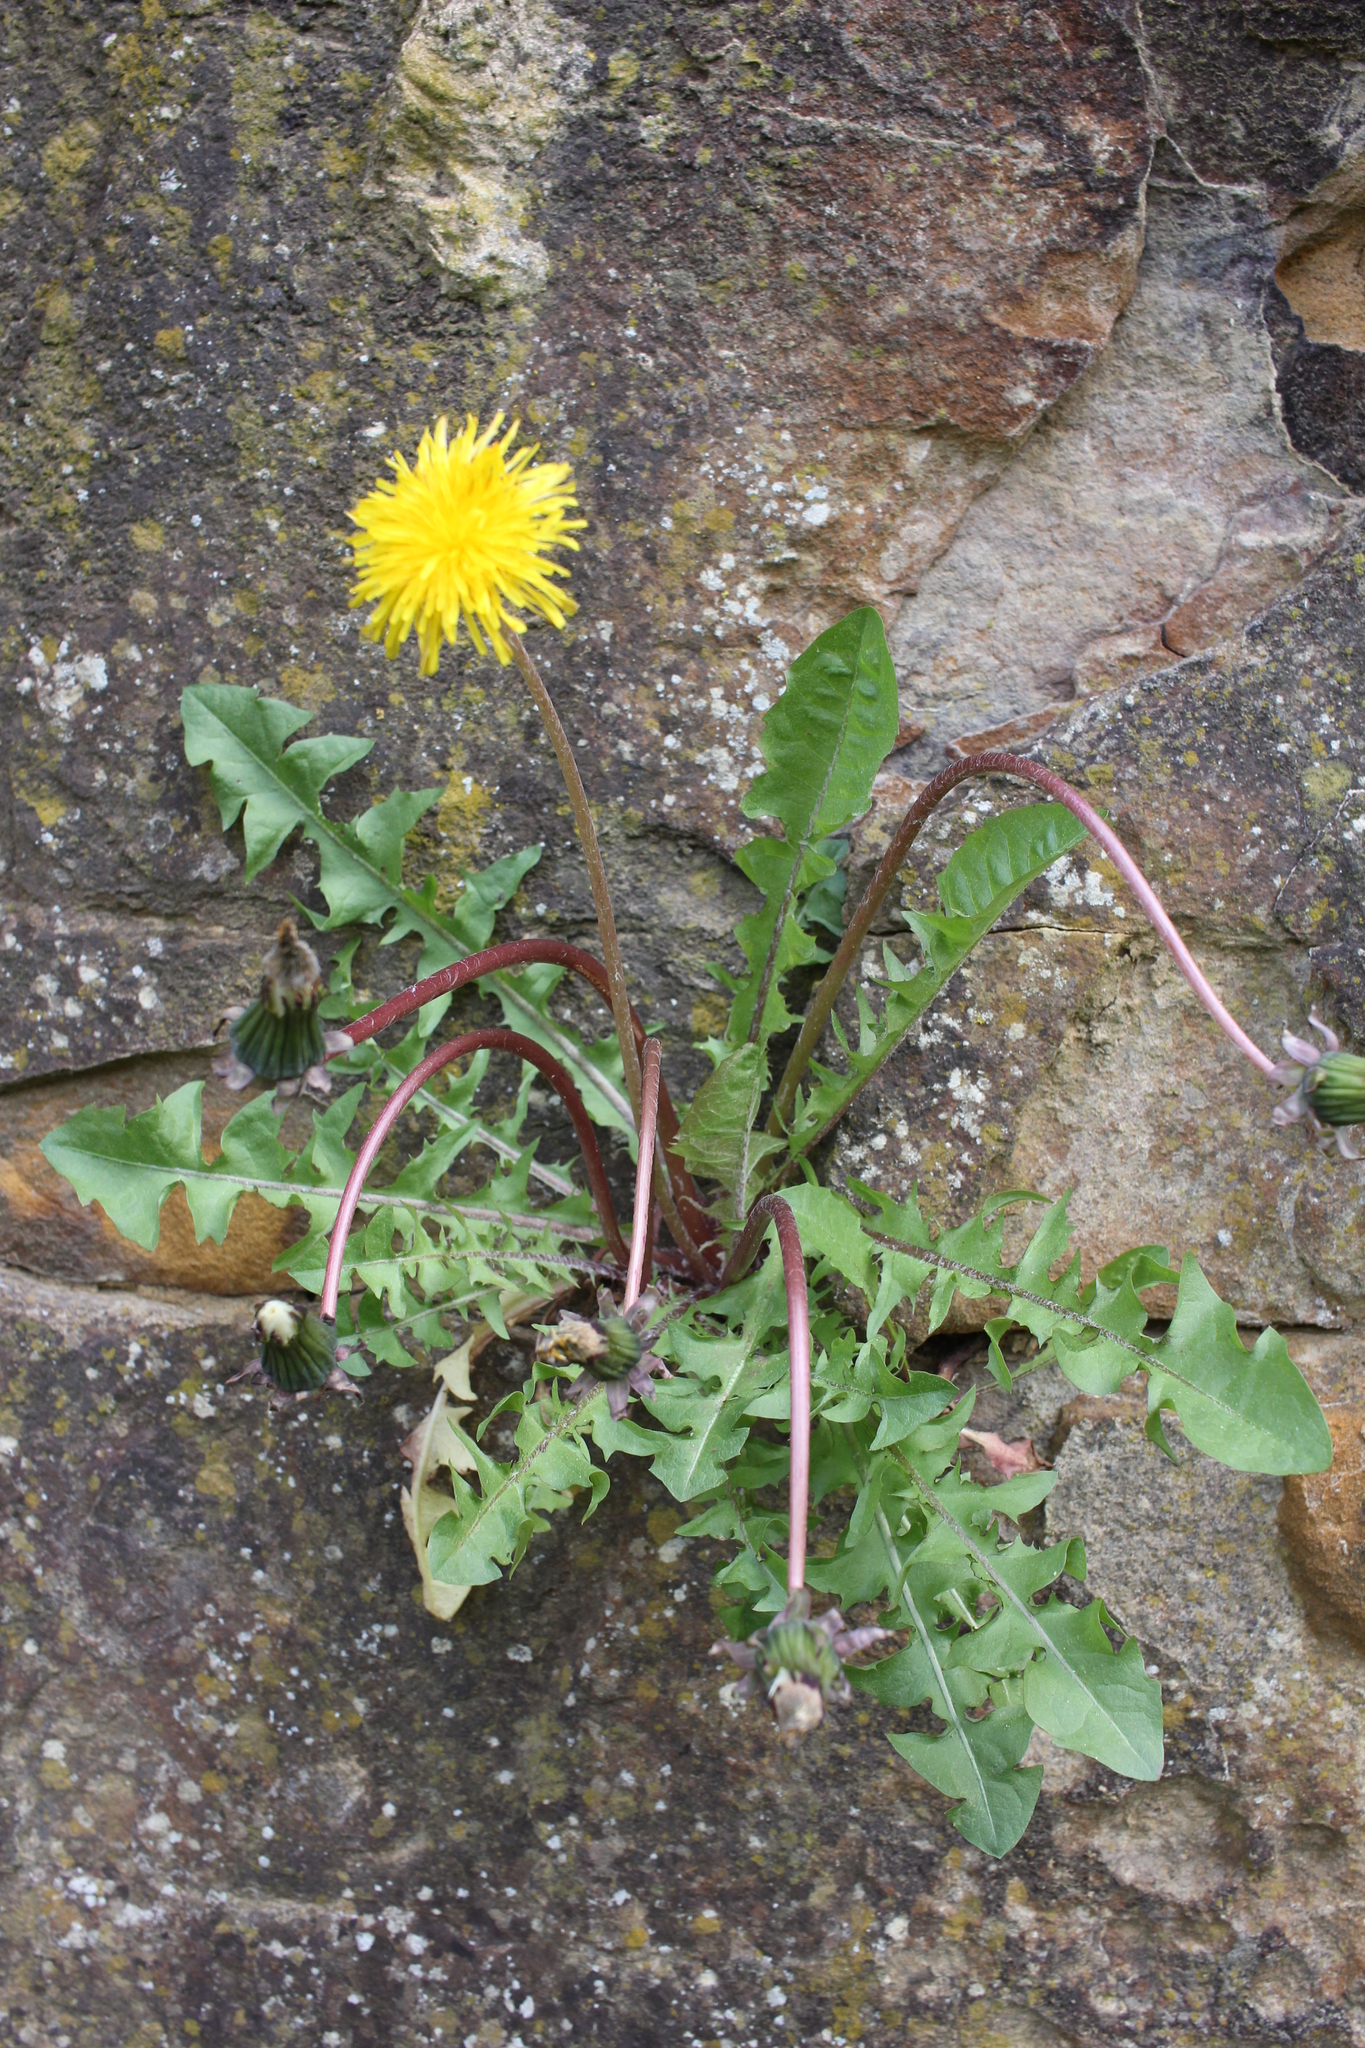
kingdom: Plantae
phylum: Tracheophyta
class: Magnoliopsida
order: Asterales
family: Asteraceae
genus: Taraxacum
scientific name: Taraxacum officinale
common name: Common dandelion
